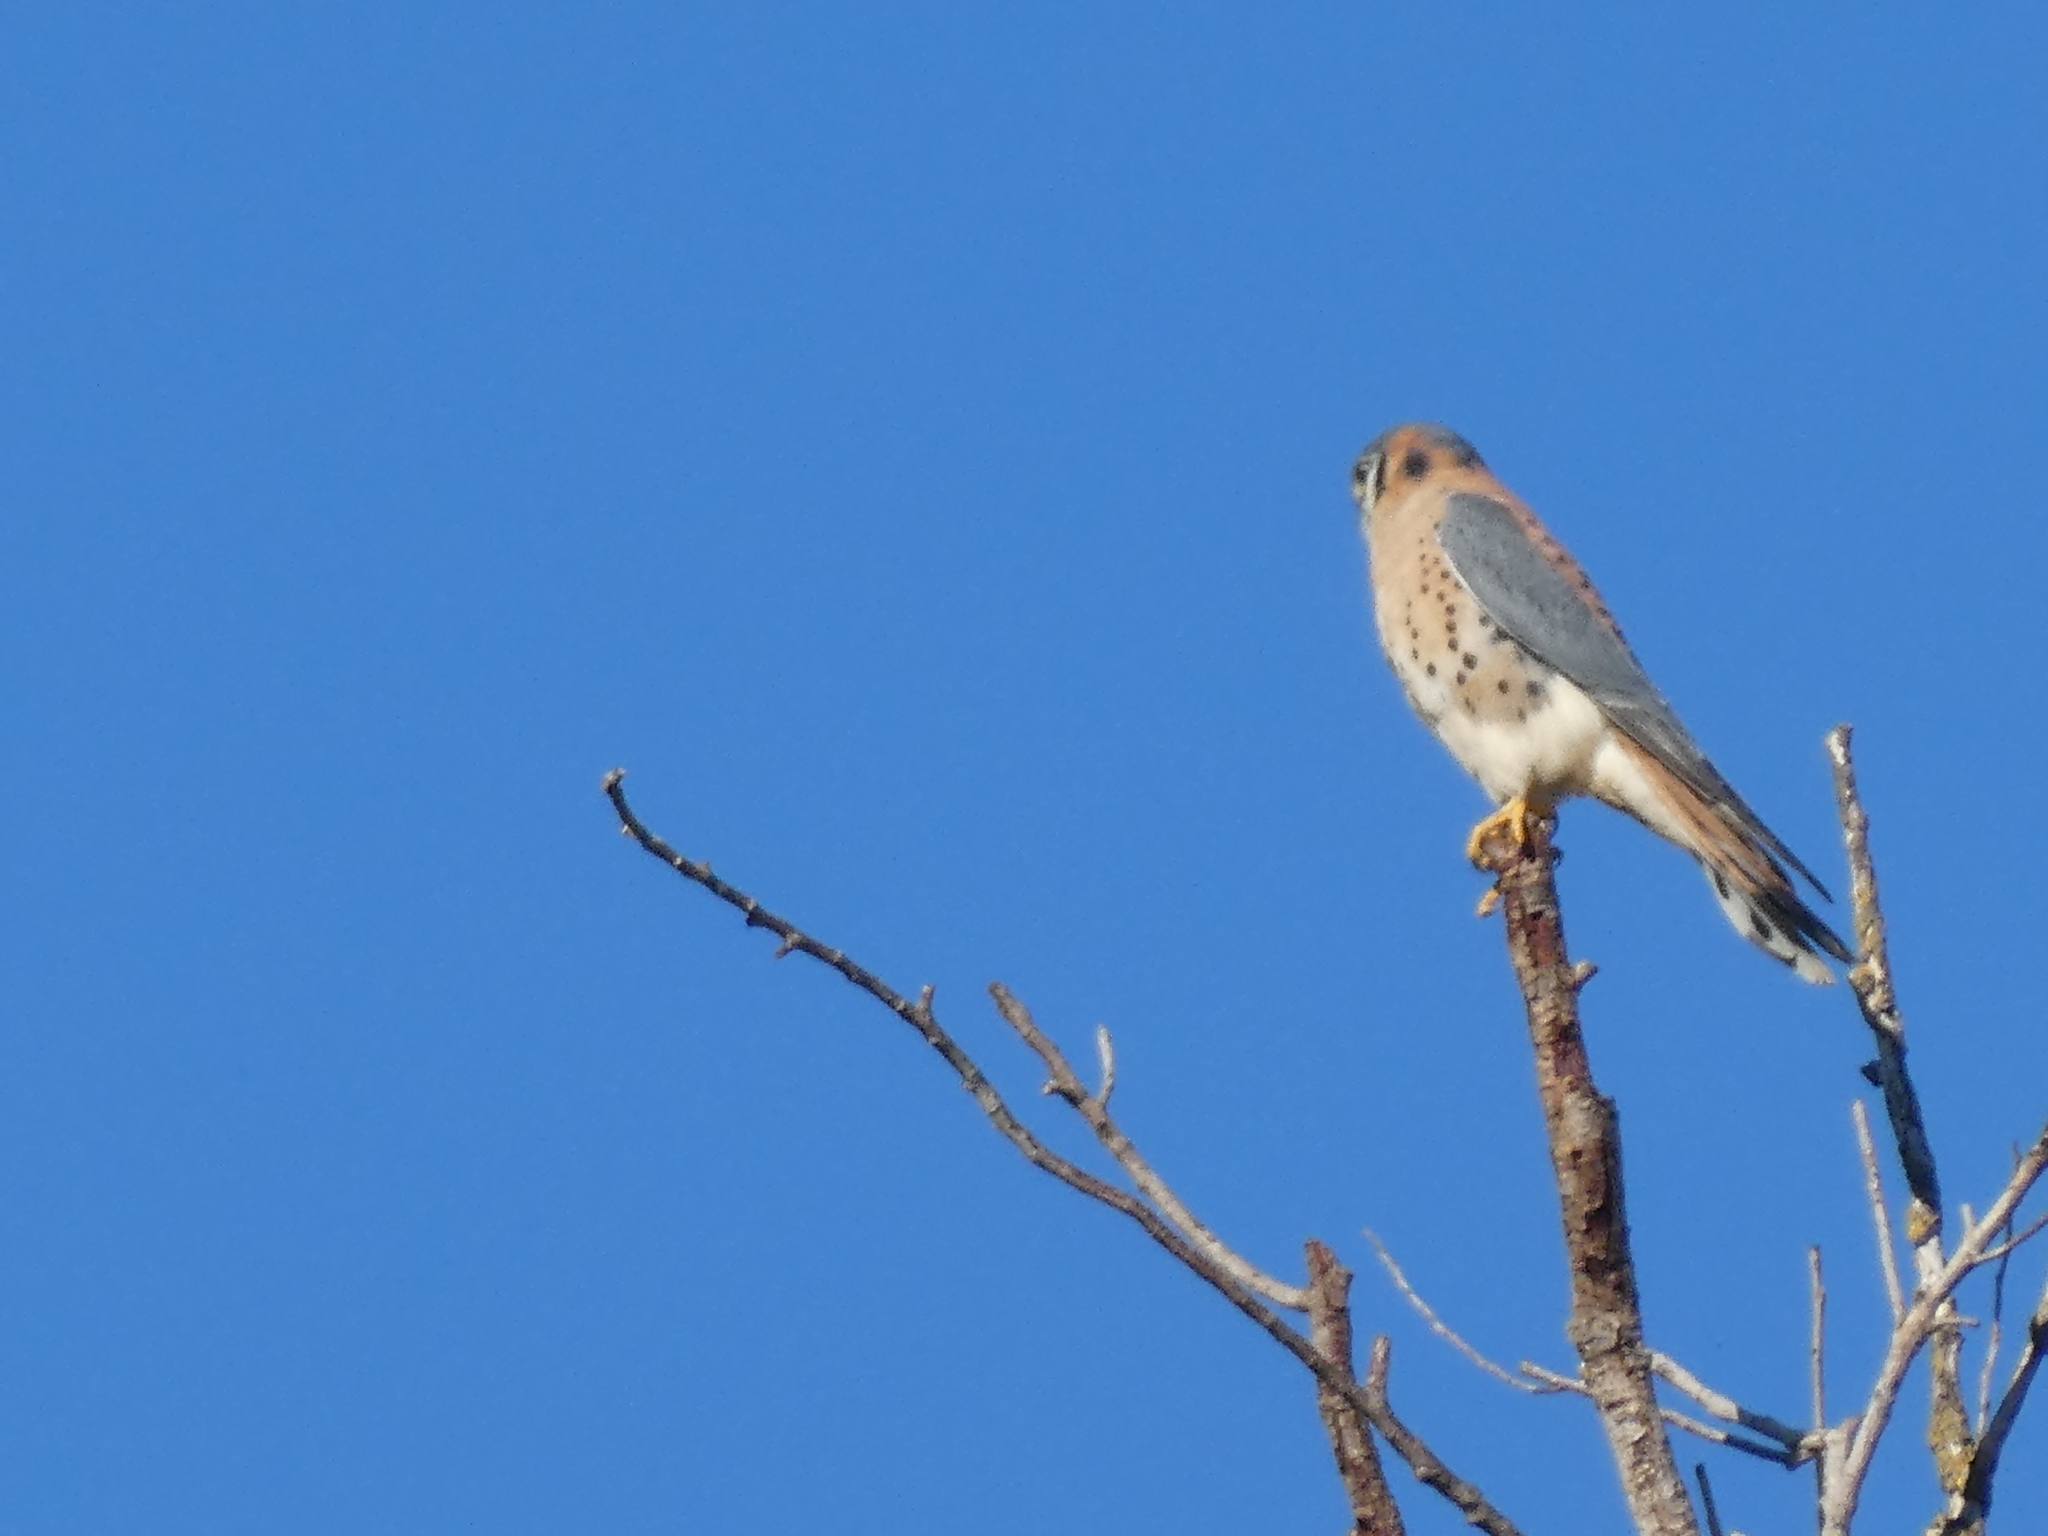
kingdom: Animalia
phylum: Chordata
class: Aves
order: Falconiformes
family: Falconidae
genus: Falco
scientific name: Falco sparverius
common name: American kestrel
